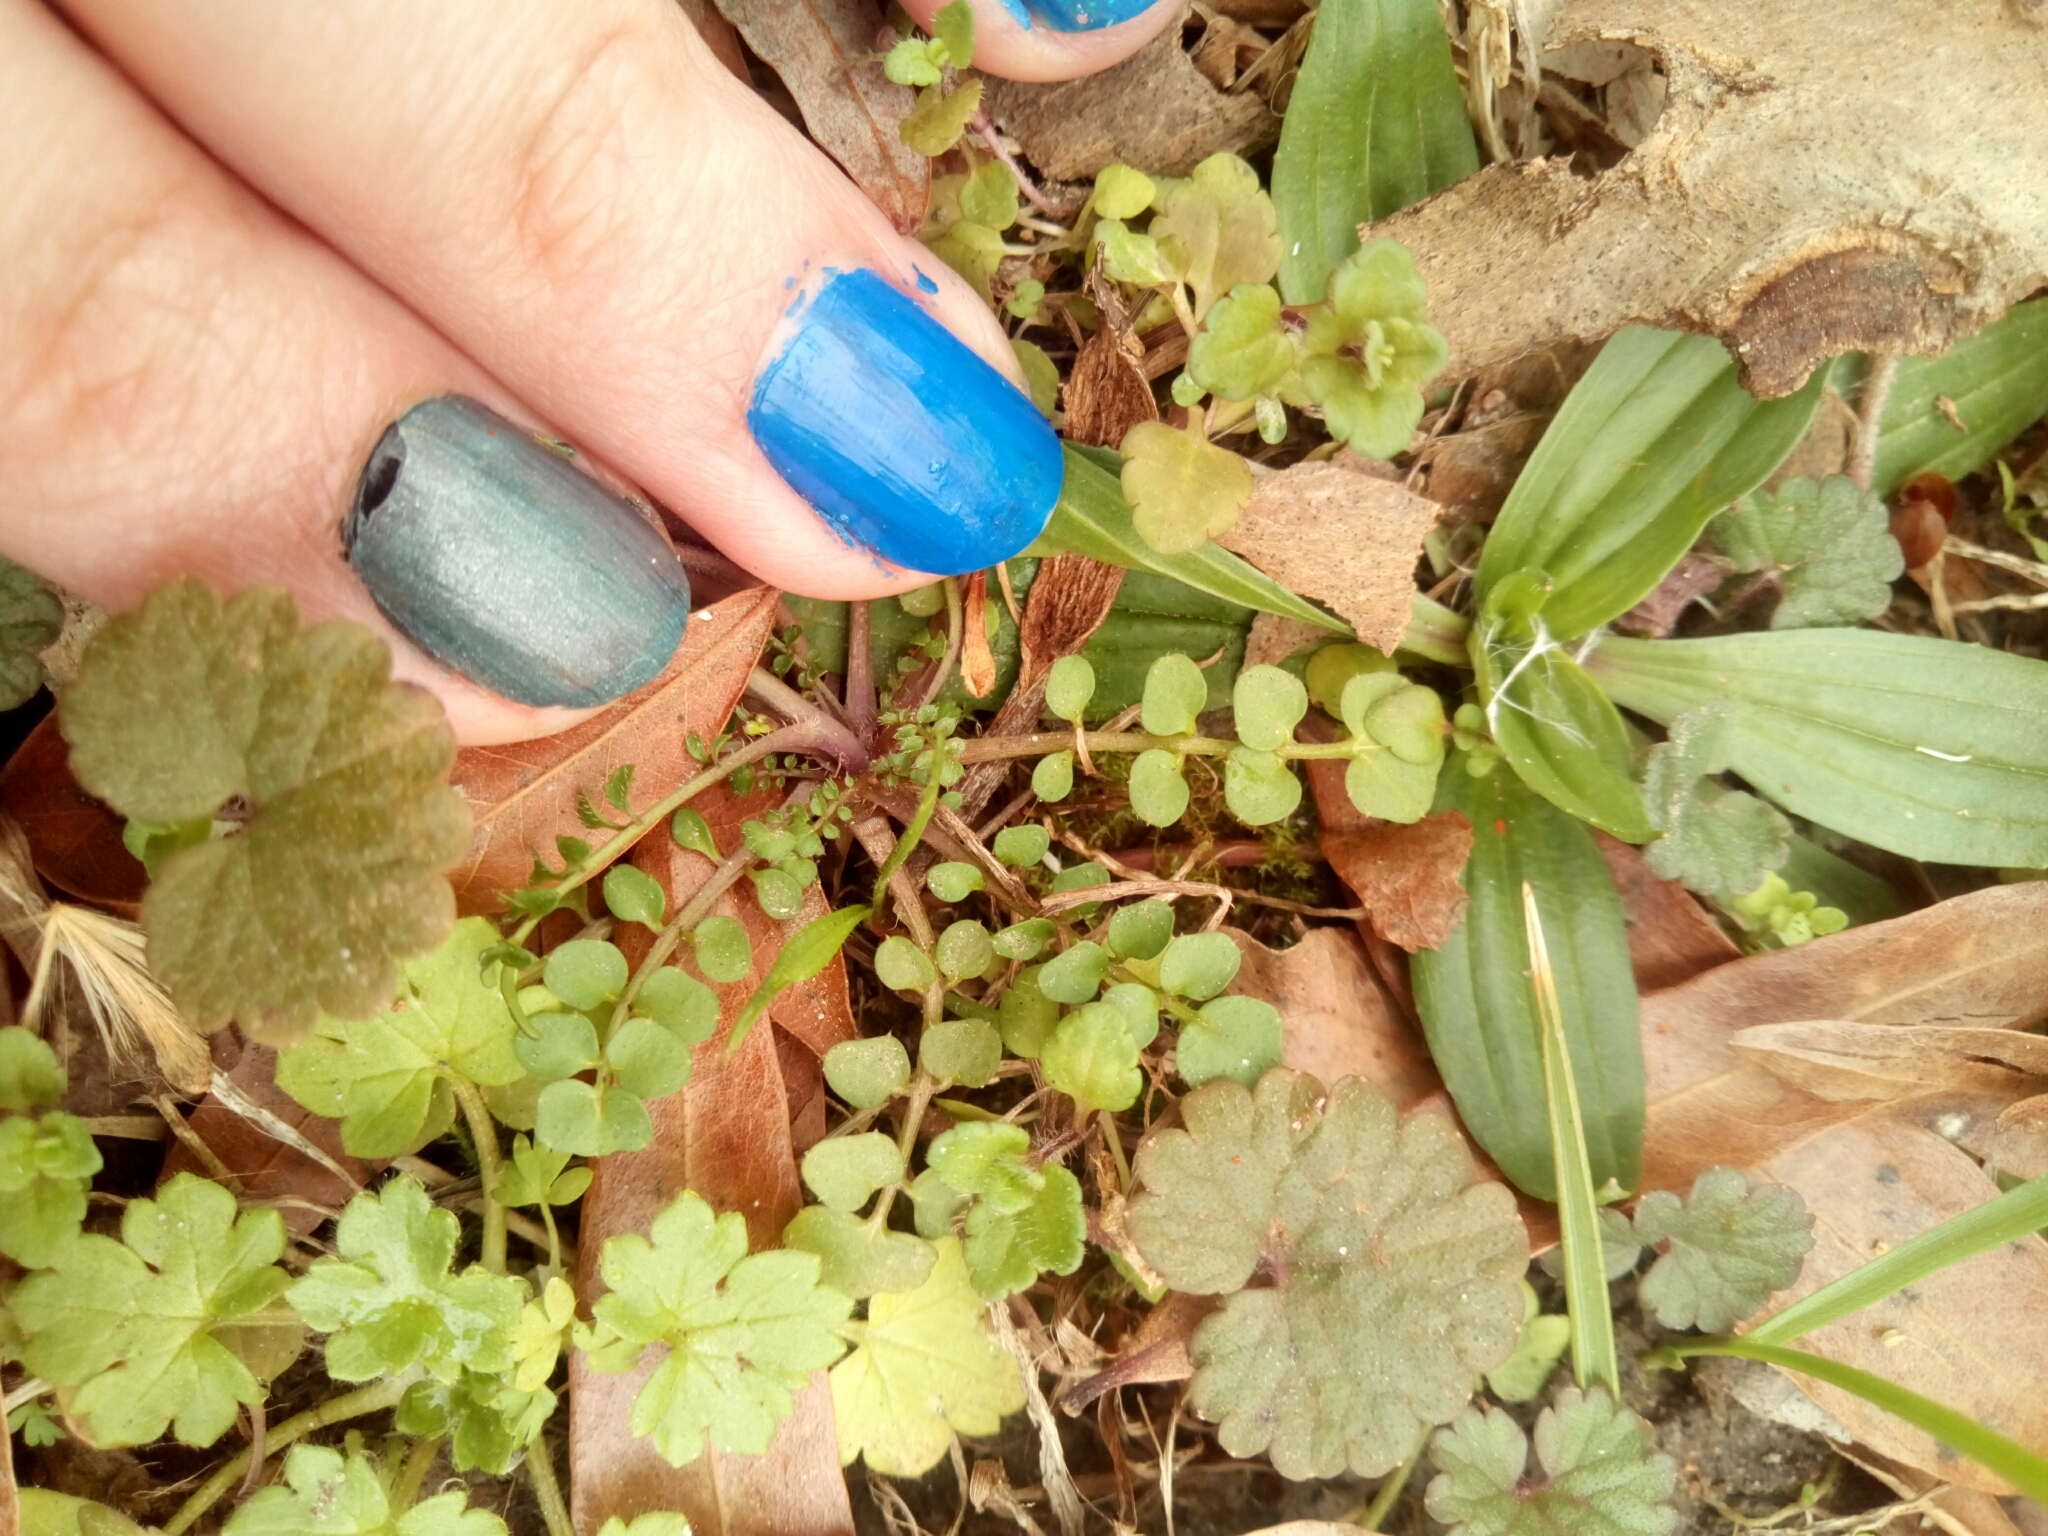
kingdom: Plantae
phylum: Tracheophyta
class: Magnoliopsida
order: Brassicales
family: Brassicaceae
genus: Cardamine
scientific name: Cardamine hirsuta
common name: Hairy bittercress
